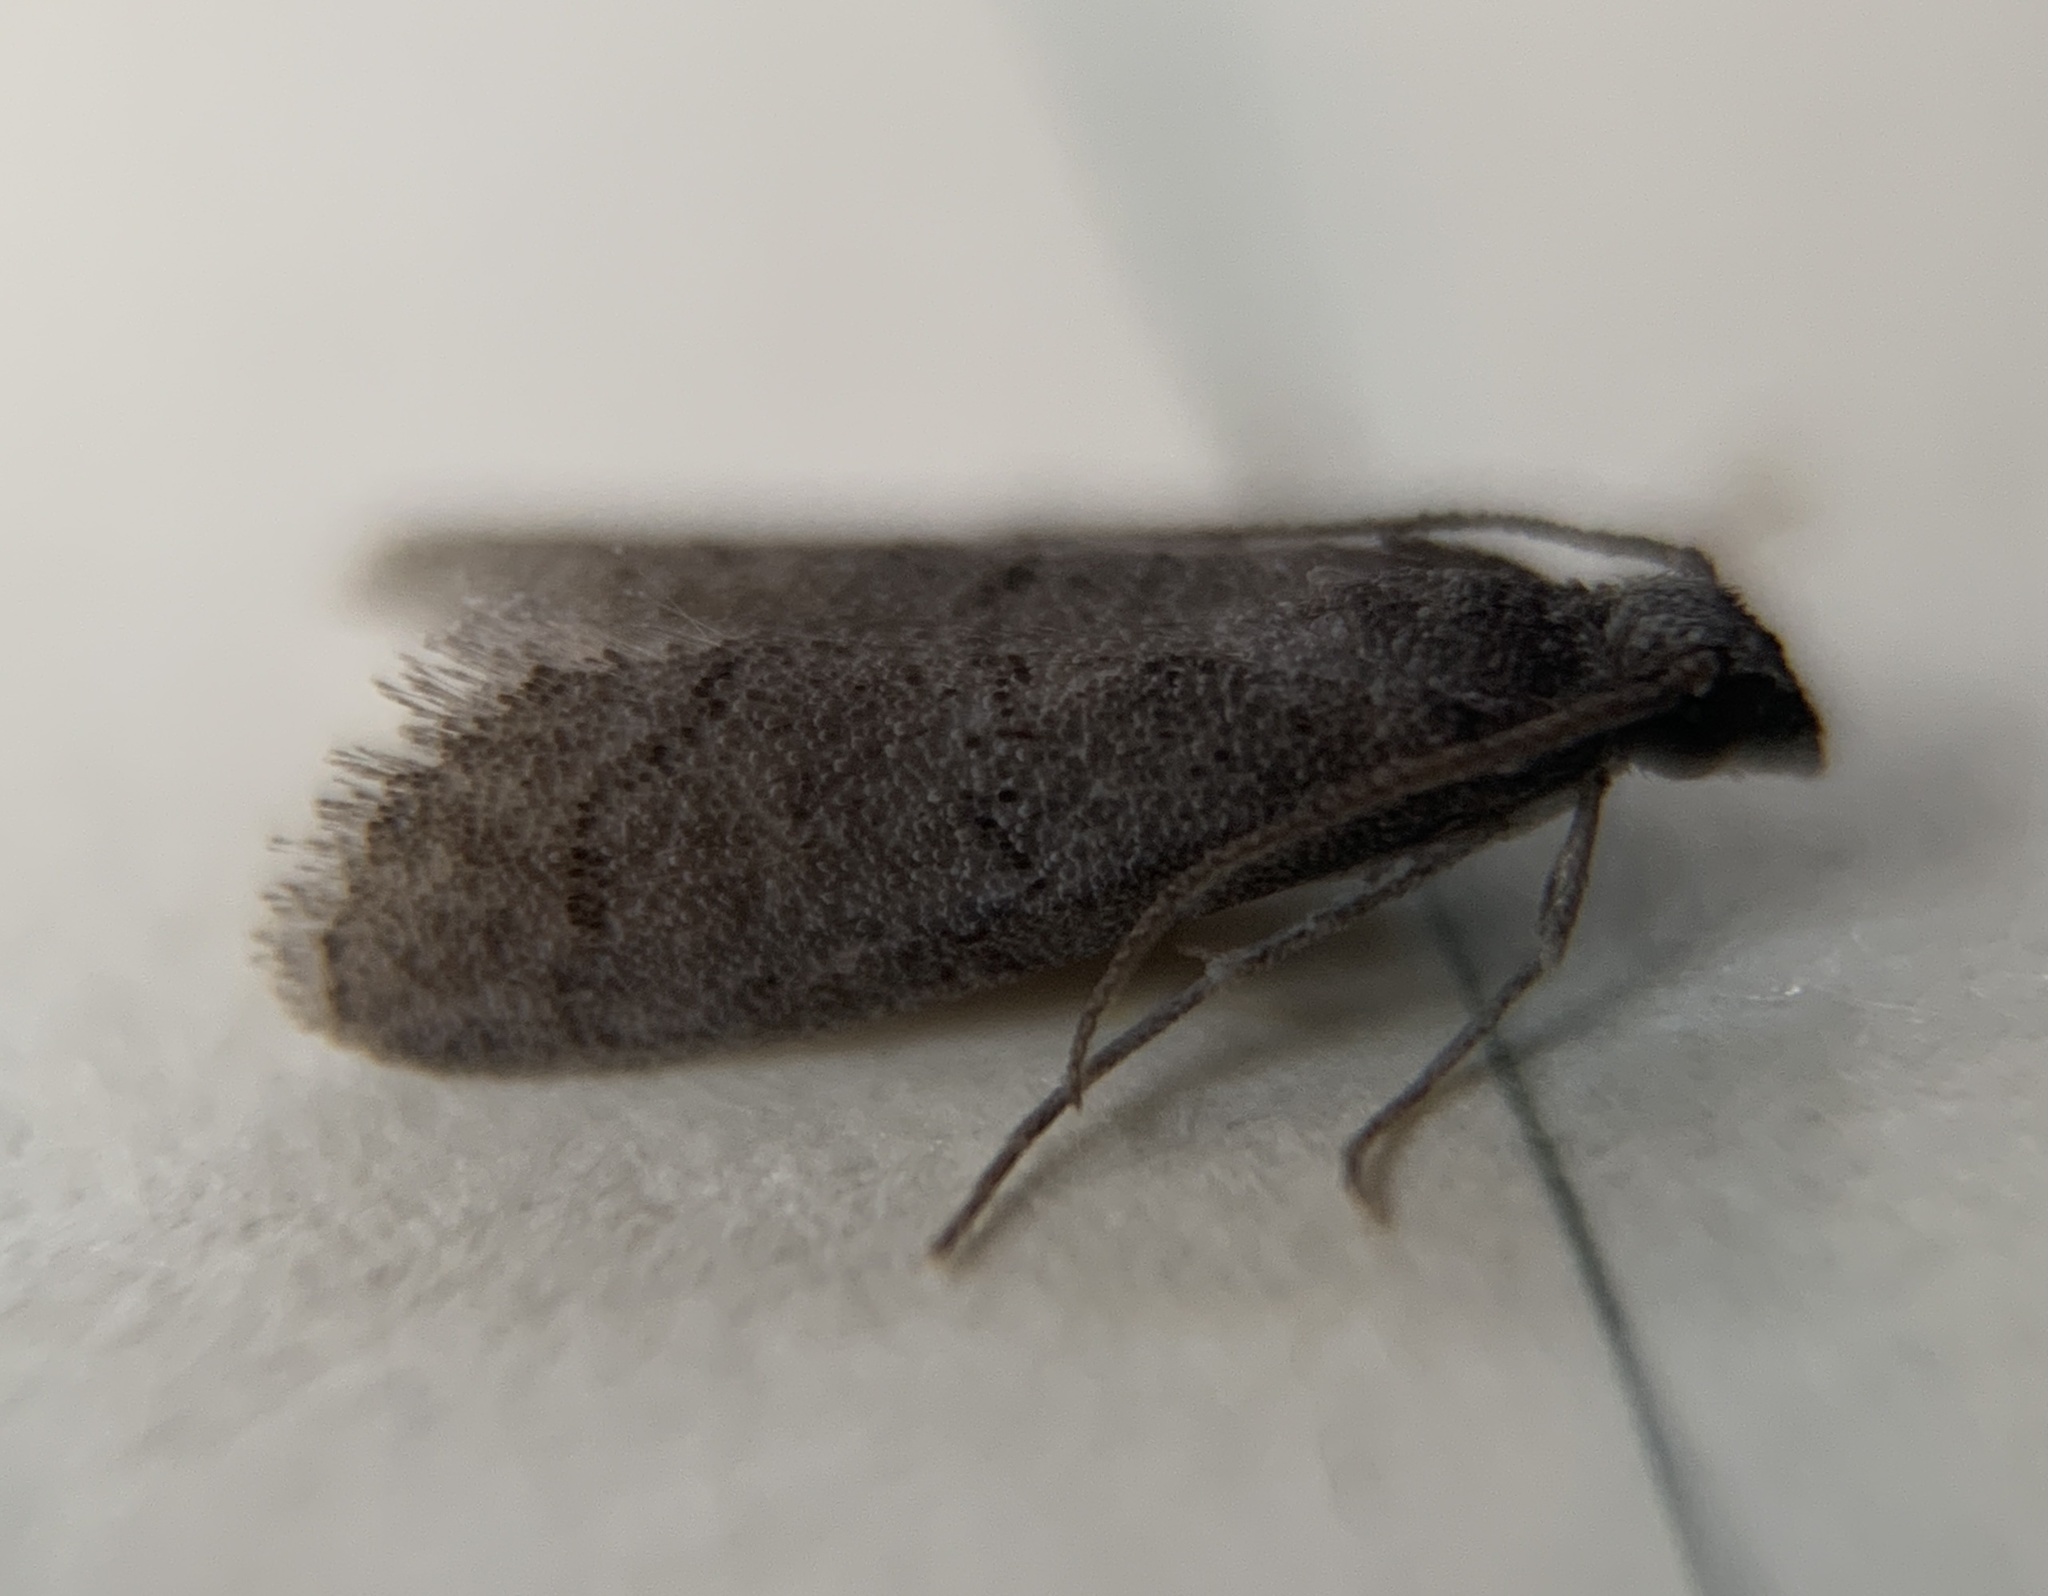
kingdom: Animalia
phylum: Arthropoda
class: Insecta
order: Lepidoptera
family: Pyralidae
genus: Cacotherapia
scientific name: Cacotherapia unicoloralis
